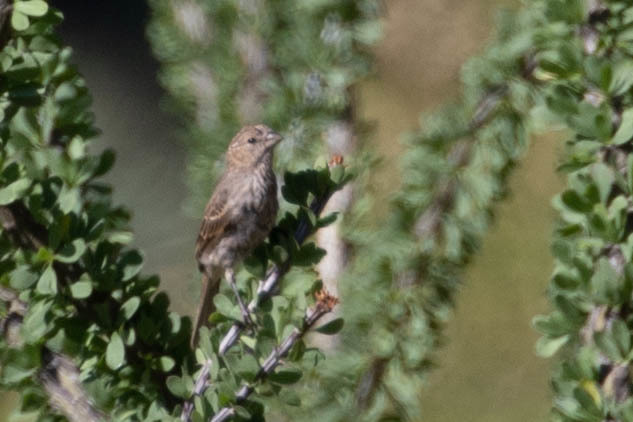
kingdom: Animalia
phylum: Chordata
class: Aves
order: Passeriformes
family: Fringillidae
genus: Haemorhous
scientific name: Haemorhous mexicanus
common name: House finch
